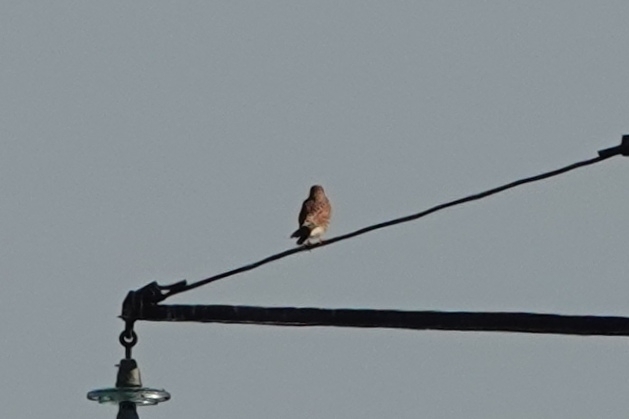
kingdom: Animalia
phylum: Chordata
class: Aves
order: Falconiformes
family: Falconidae
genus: Falco
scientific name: Falco tinnunculus
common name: Common kestrel
